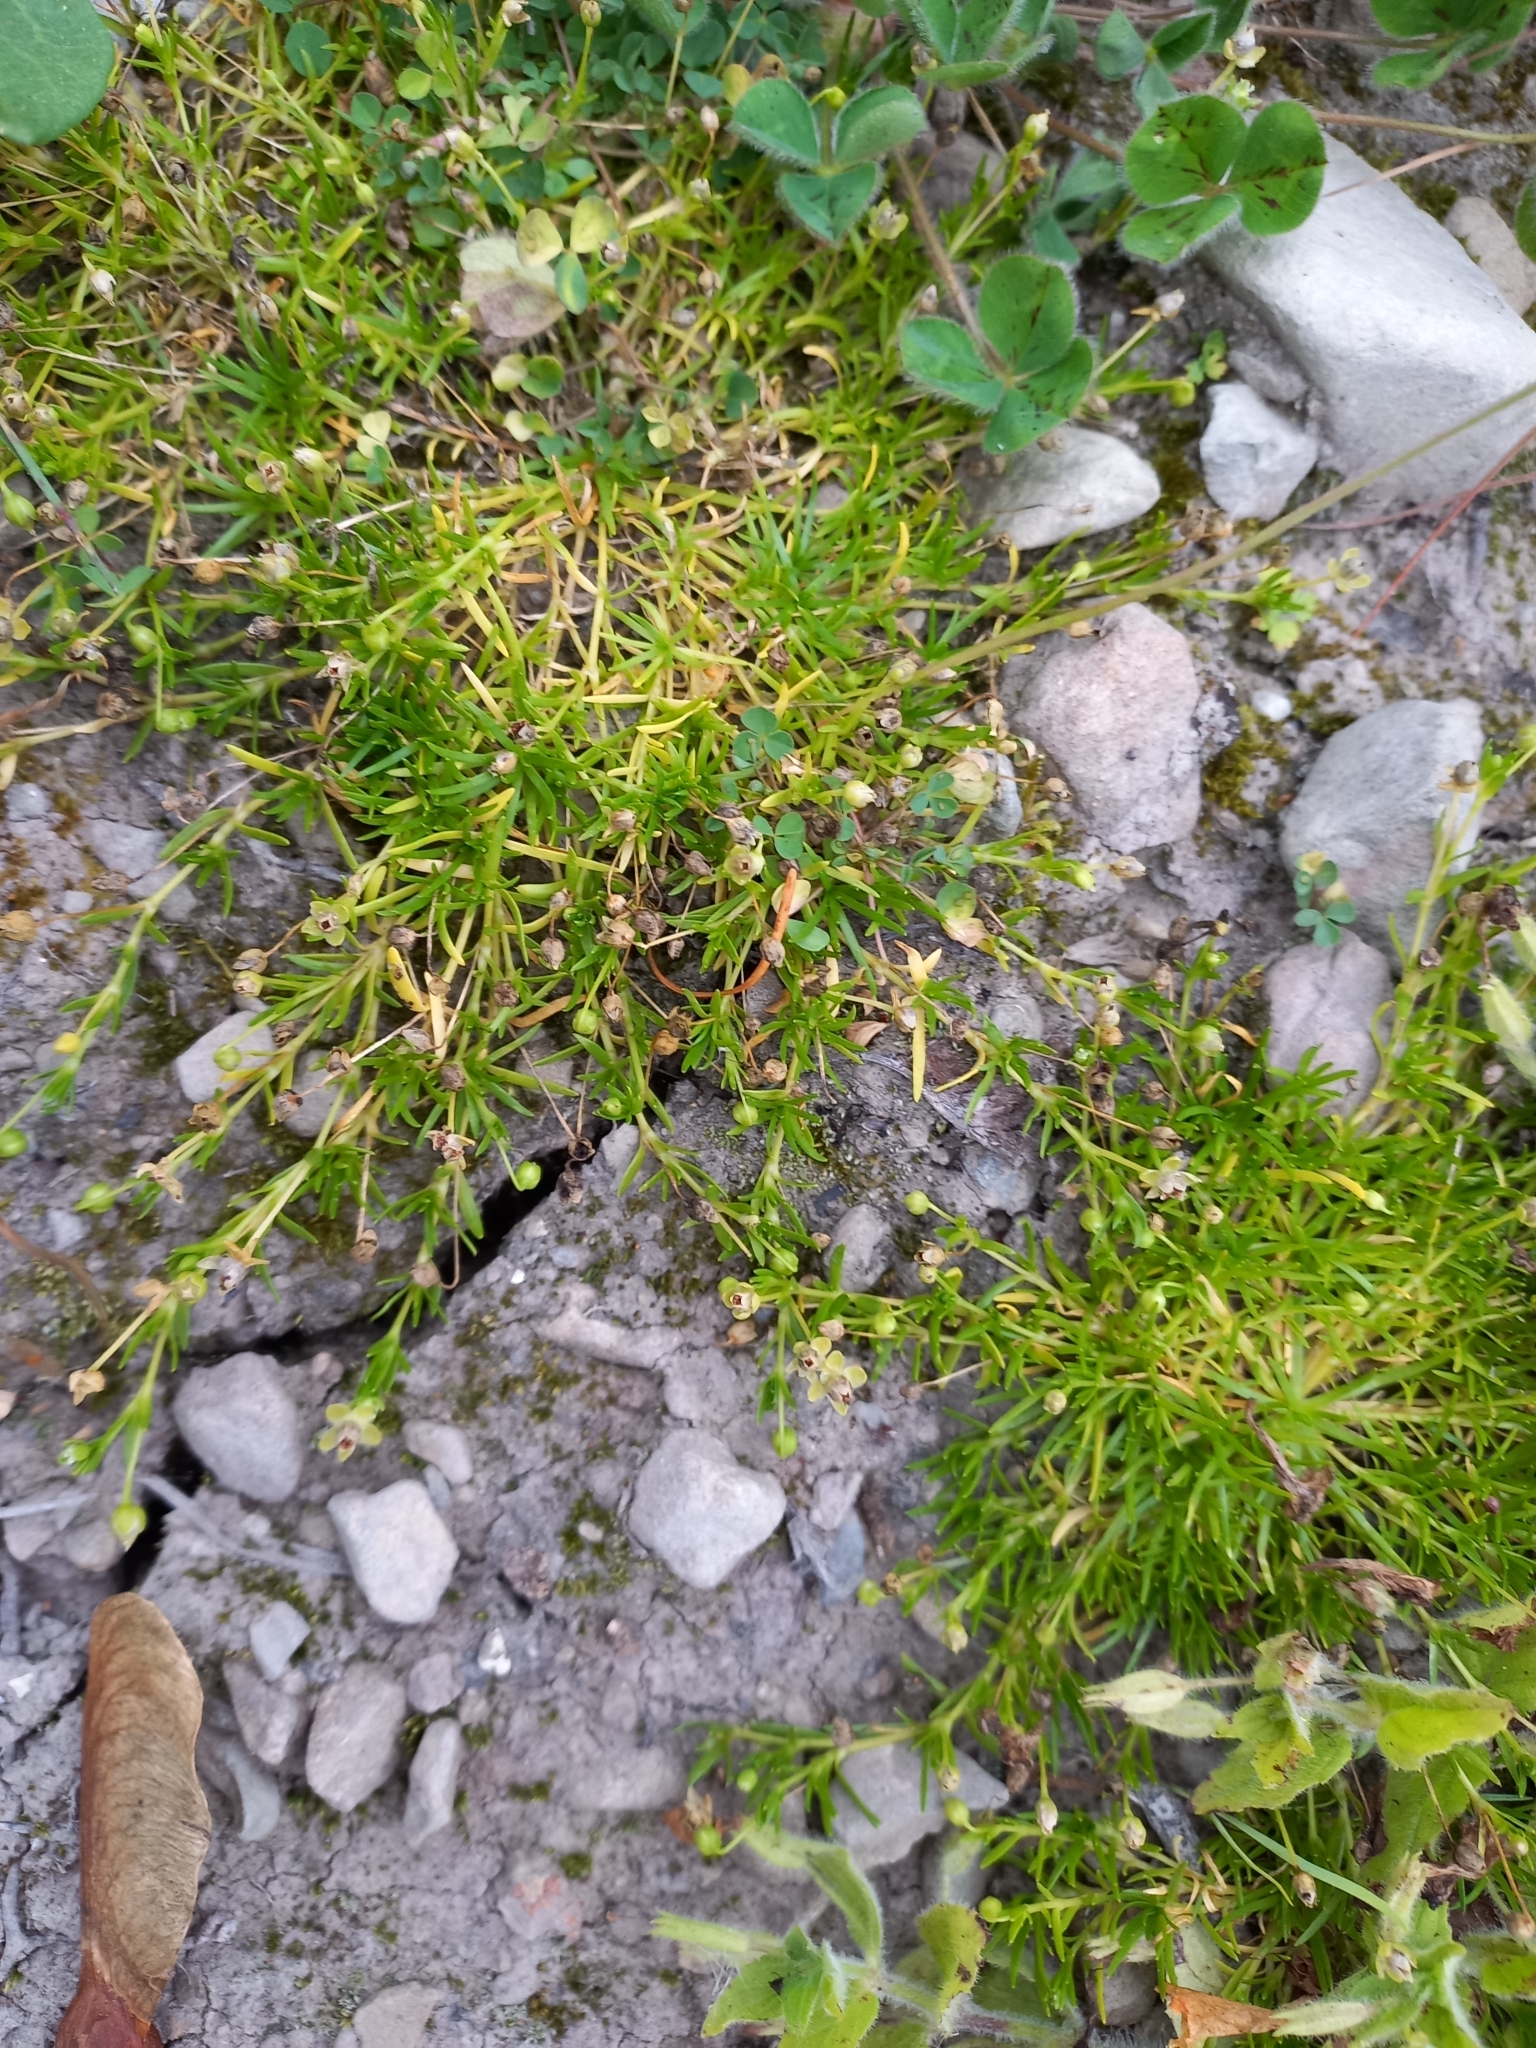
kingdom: Plantae
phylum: Tracheophyta
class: Magnoliopsida
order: Caryophyllales
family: Caryophyllaceae
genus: Sagina
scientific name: Sagina procumbens
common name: Procumbent pearlwort
